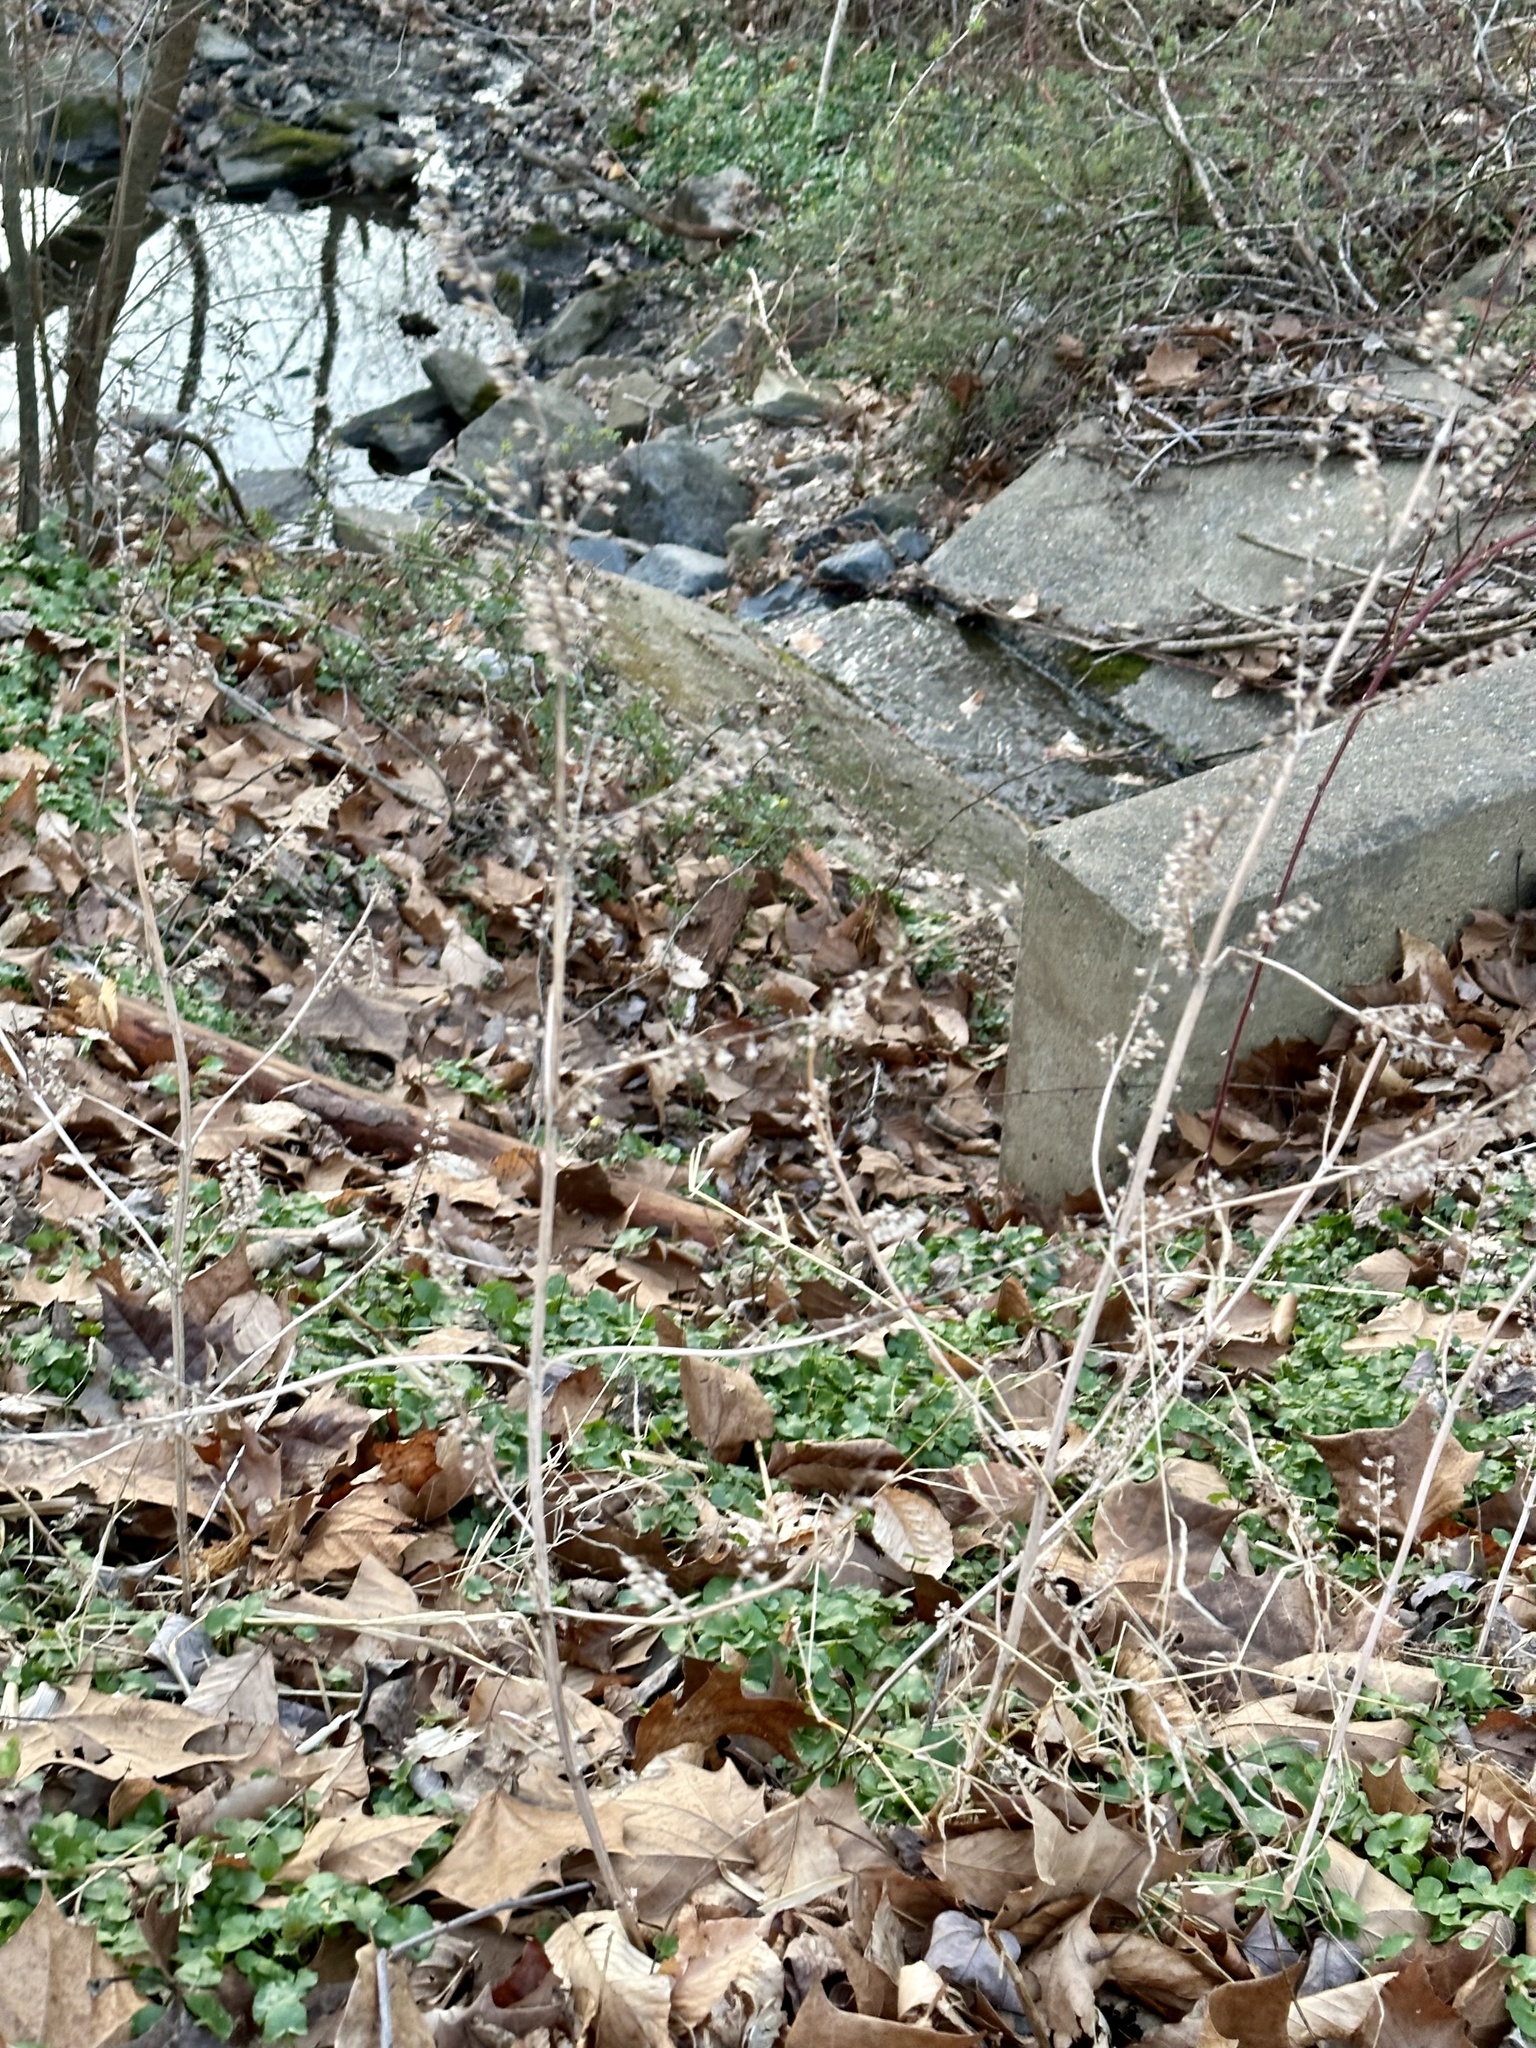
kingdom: Plantae
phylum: Tracheophyta
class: Magnoliopsida
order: Lamiales
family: Lamiaceae
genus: Perilla
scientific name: Perilla frutescens
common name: Perilla
